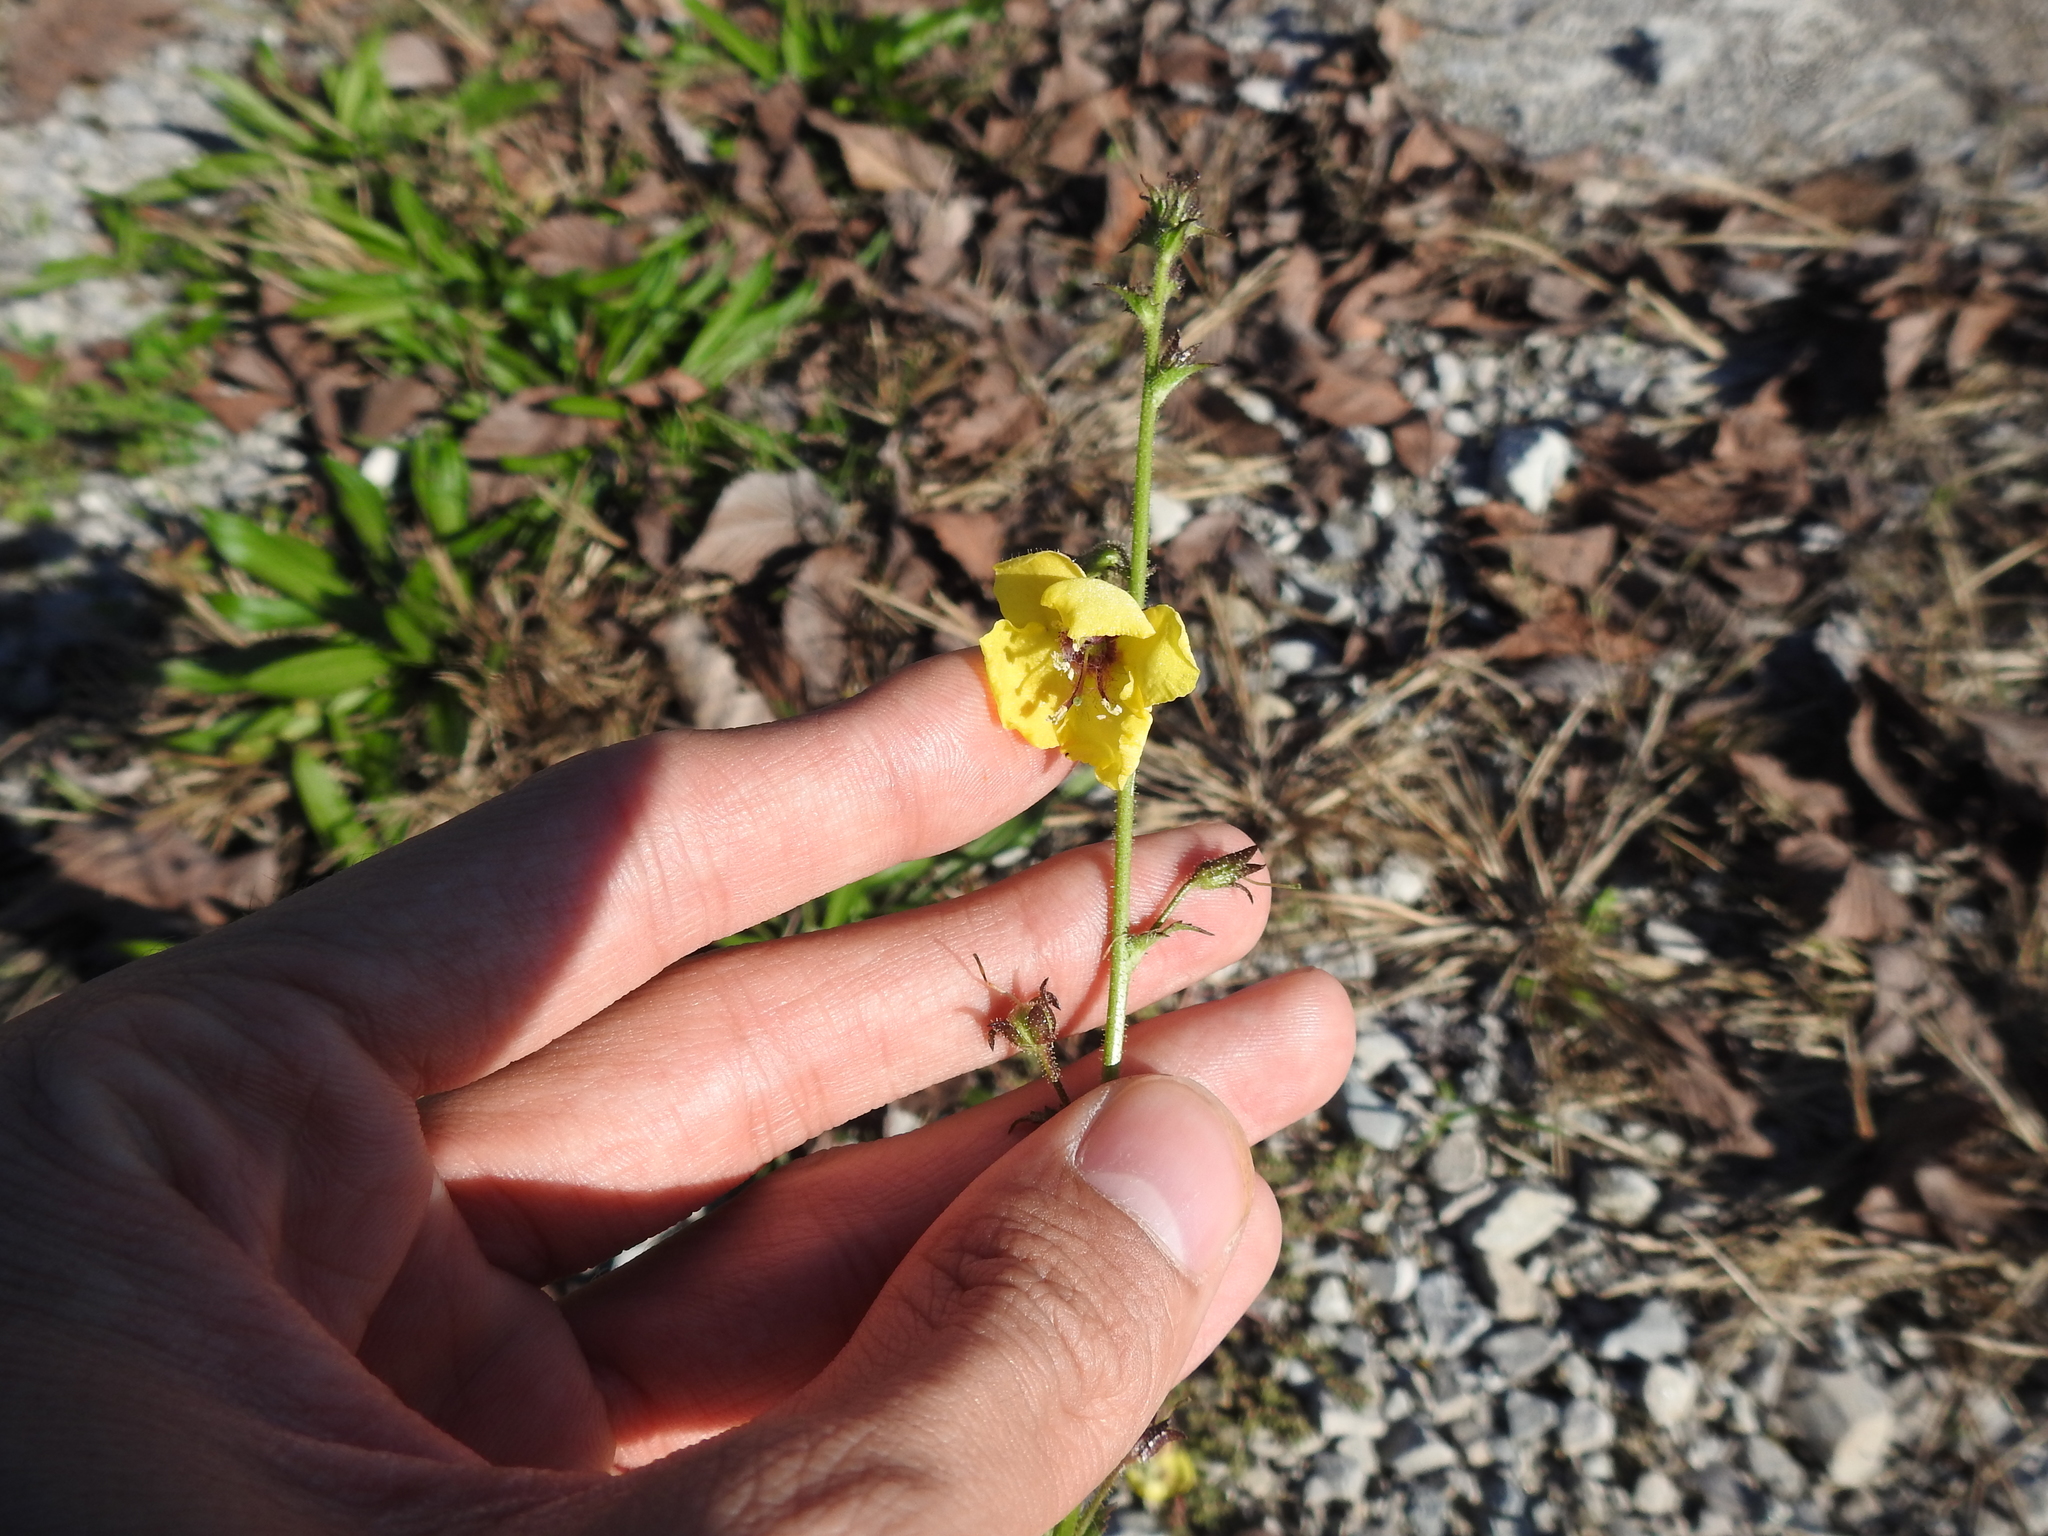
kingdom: Plantae
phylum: Tracheophyta
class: Magnoliopsida
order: Lamiales
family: Scrophulariaceae
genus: Verbascum
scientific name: Verbascum blattaria
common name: Moth mullein
